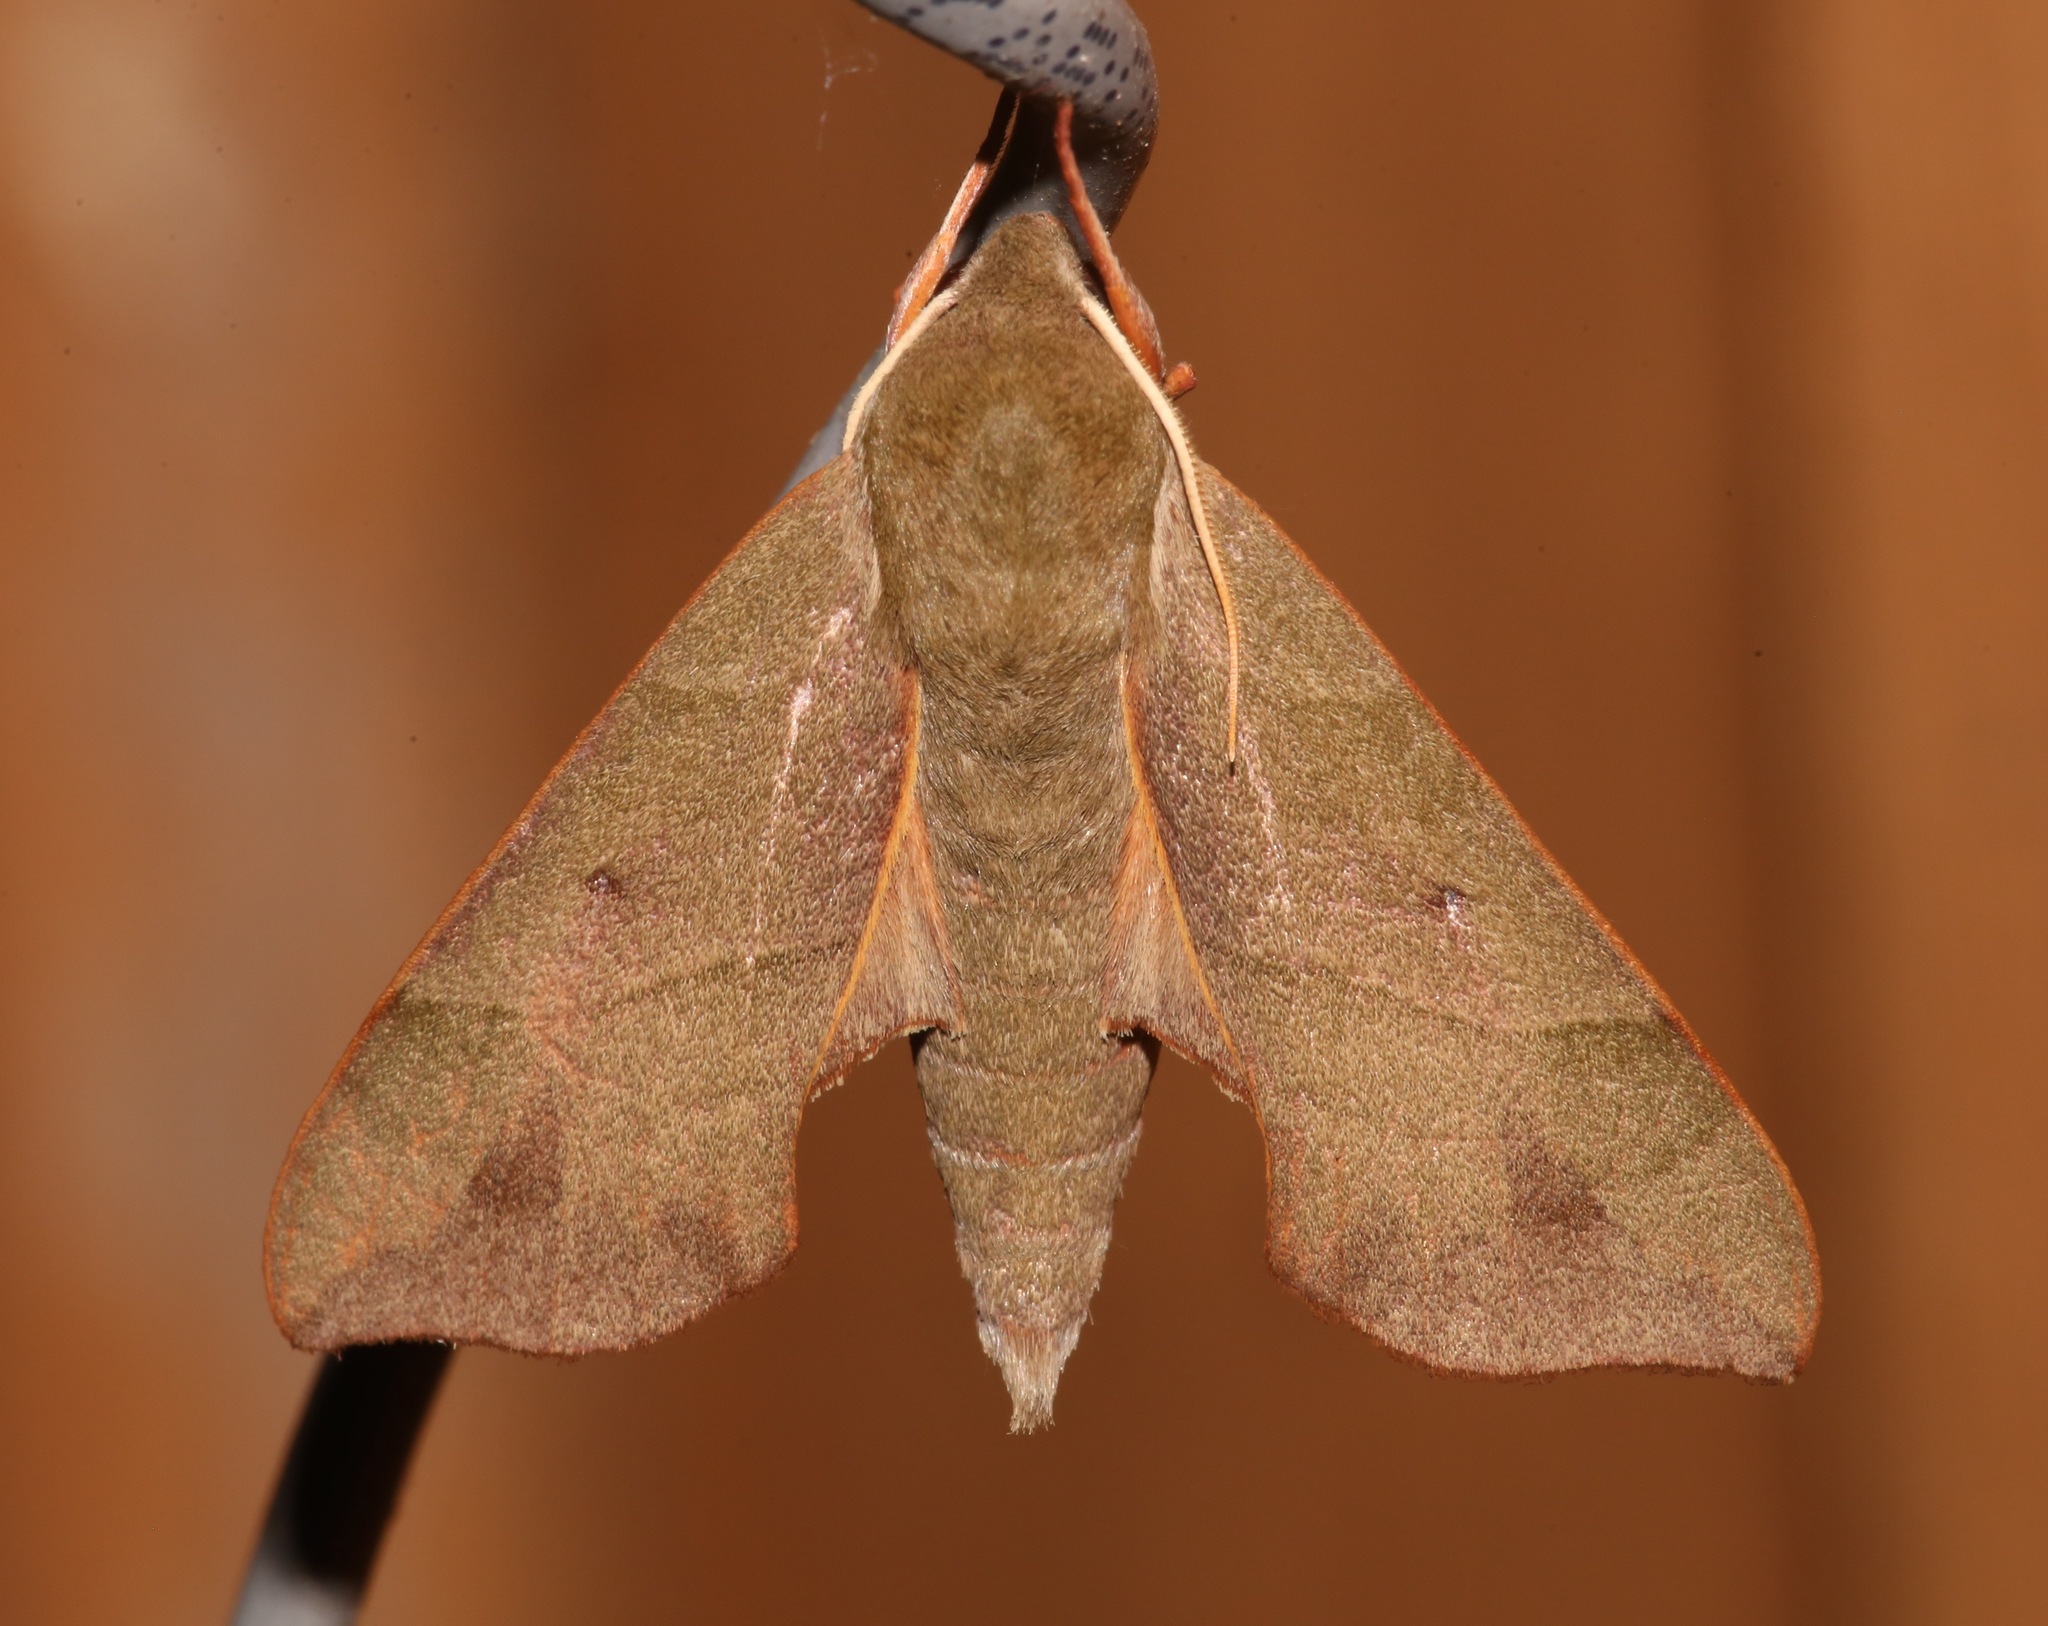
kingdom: Animalia
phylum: Arthropoda
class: Insecta
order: Lepidoptera
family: Sphingidae
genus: Darapsa
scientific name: Darapsa myron
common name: Hog sphinx
